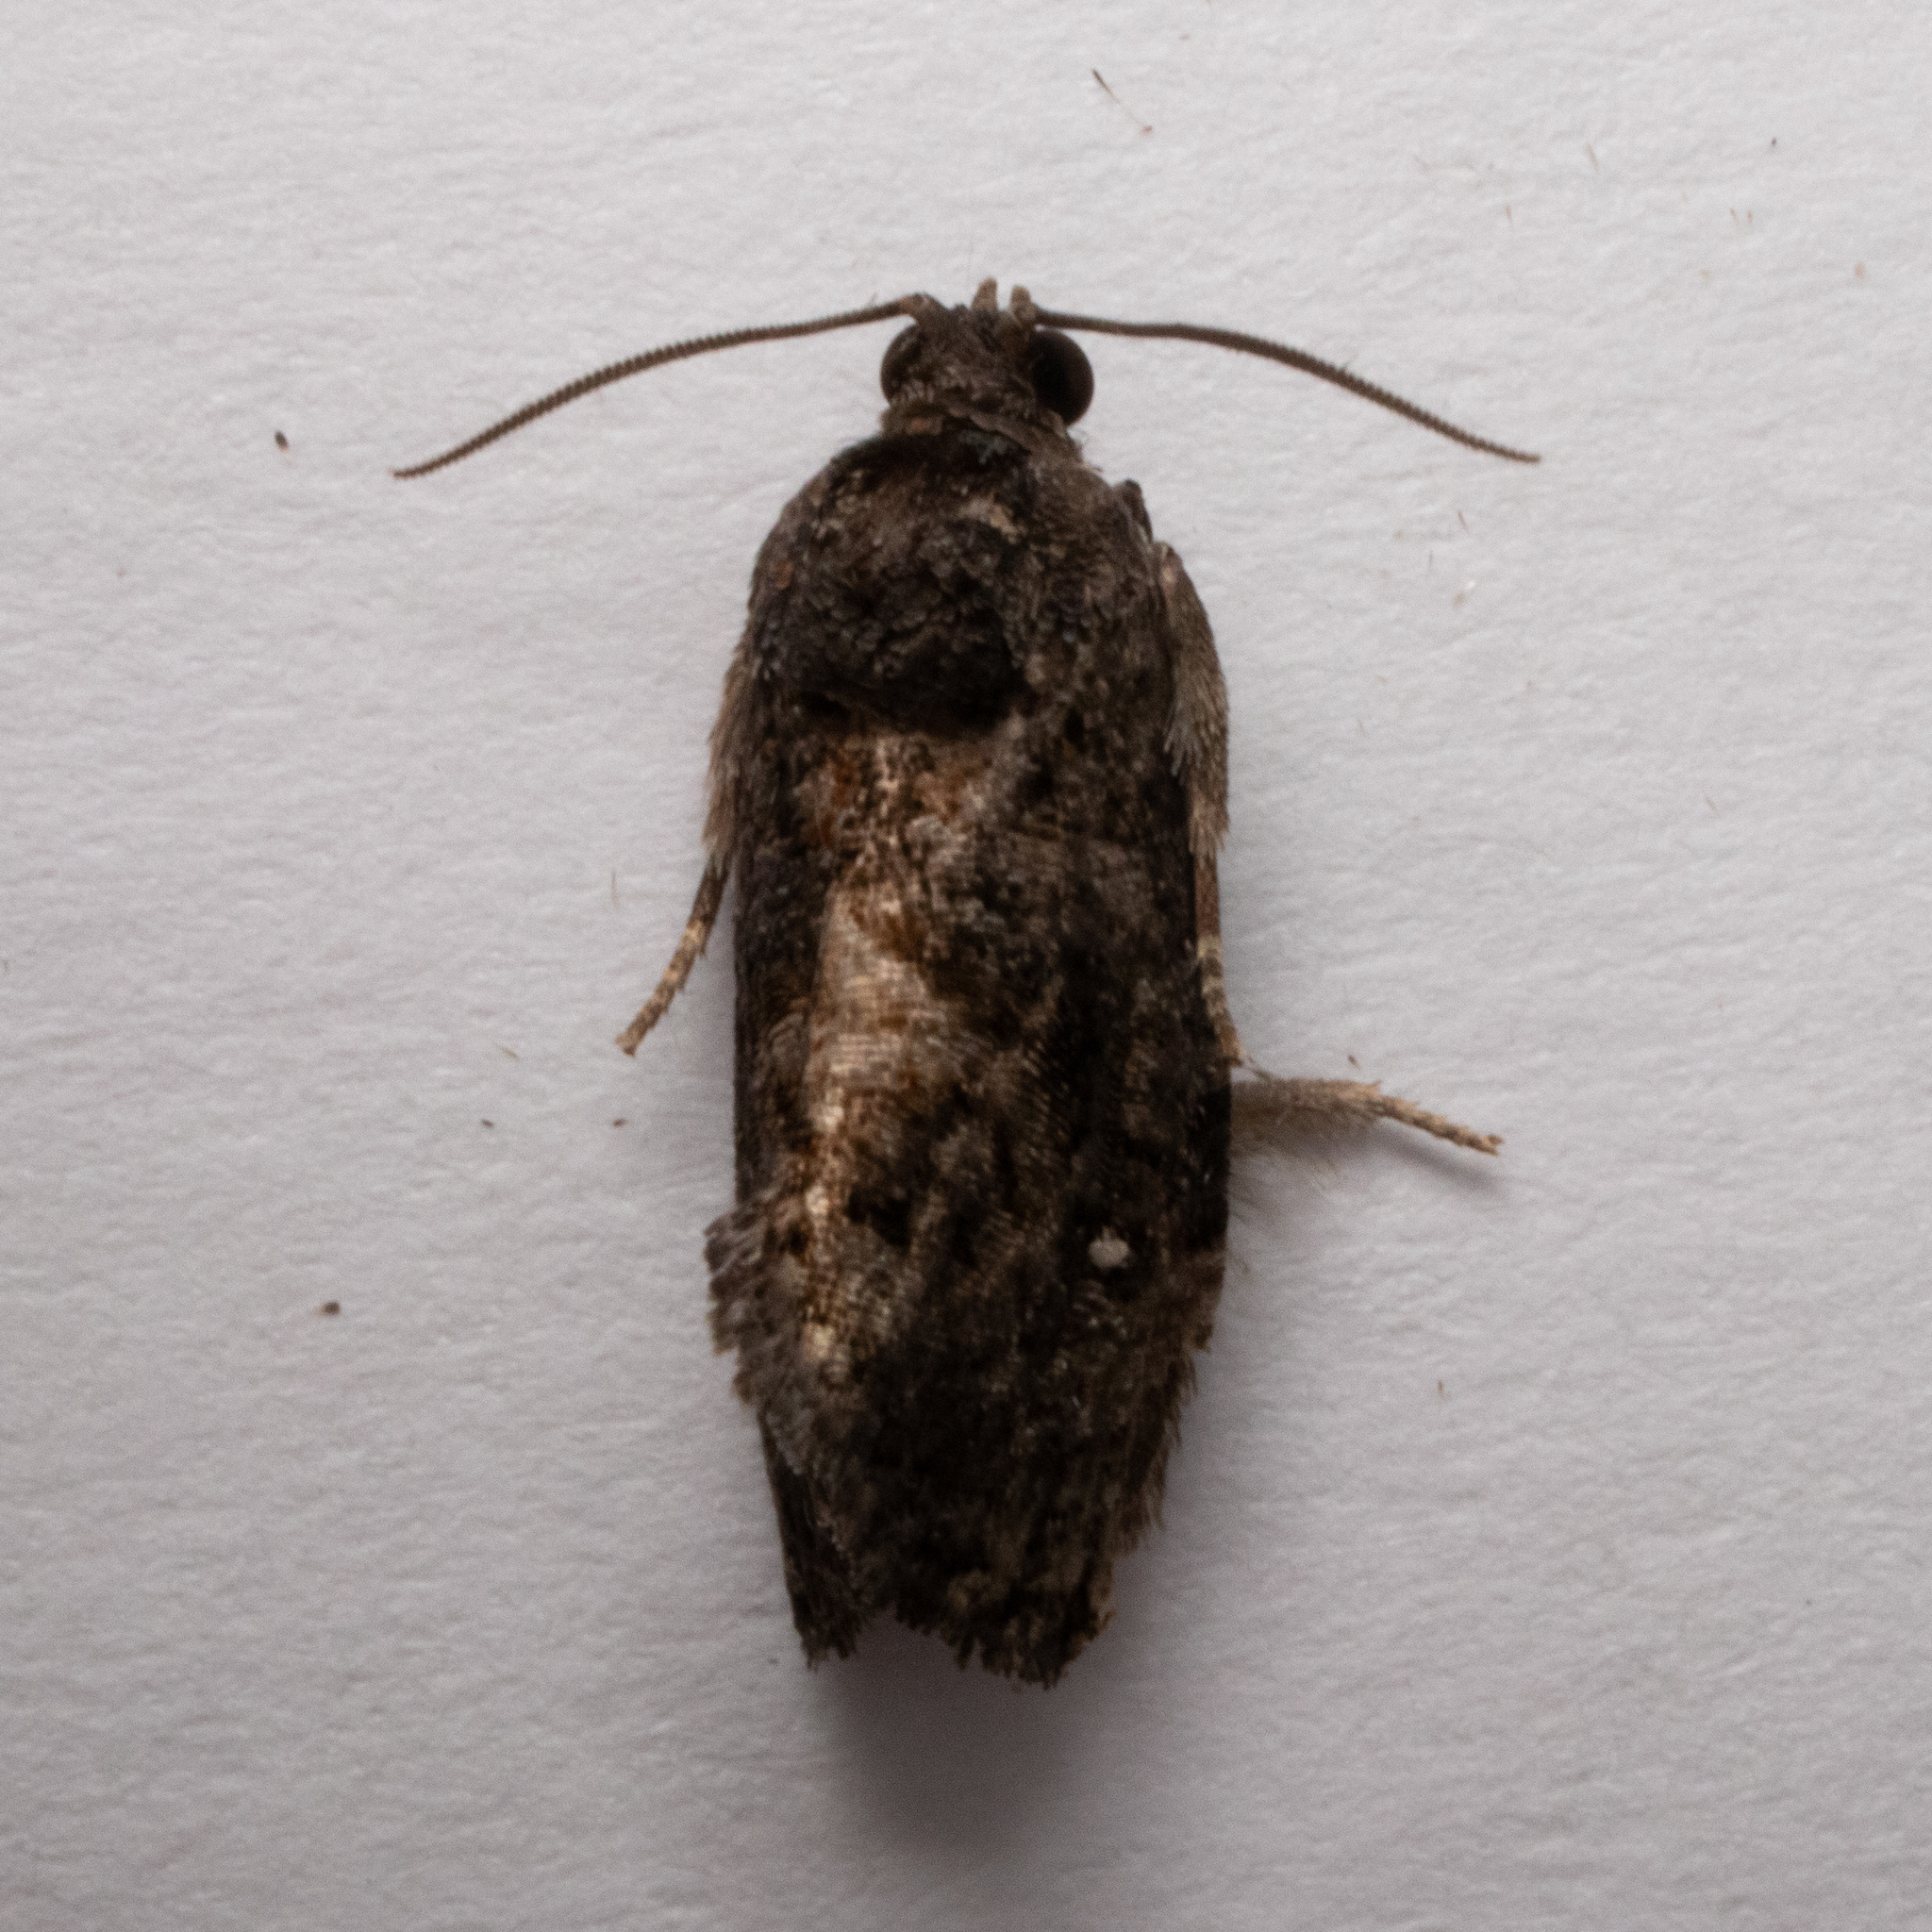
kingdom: Animalia
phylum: Arthropoda
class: Insecta
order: Lepidoptera
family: Tortricidae
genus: Gymnandrosoma
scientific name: Gymnandrosoma punctidiscanum
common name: Dotted ecdytolopha moth
